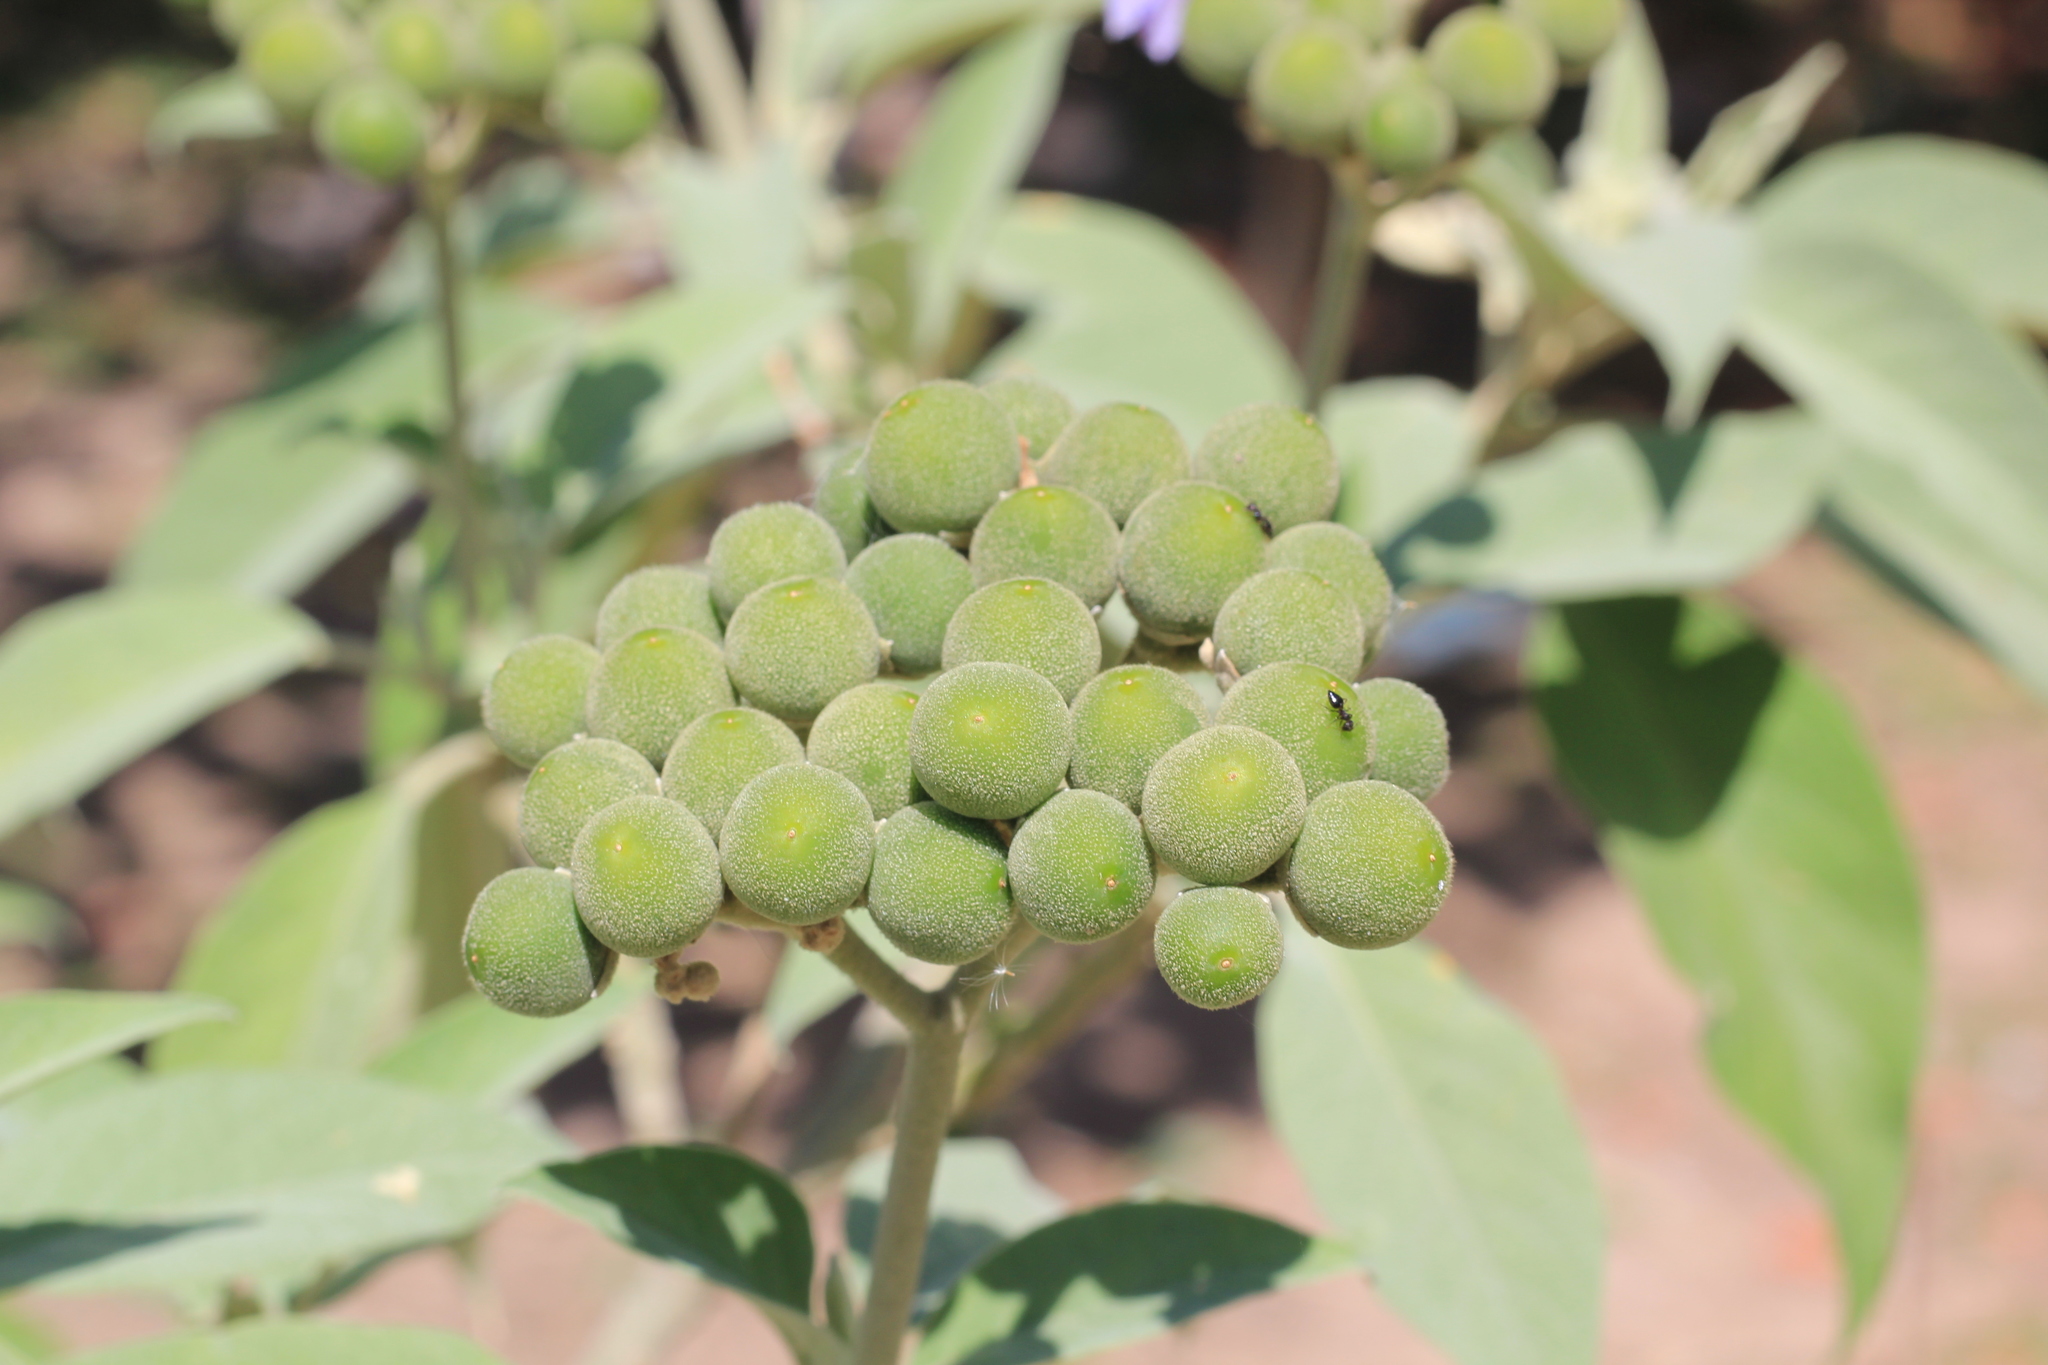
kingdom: Plantae
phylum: Tracheophyta
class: Magnoliopsida
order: Solanales
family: Solanaceae
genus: Solanum
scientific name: Solanum granulosoleprosum
